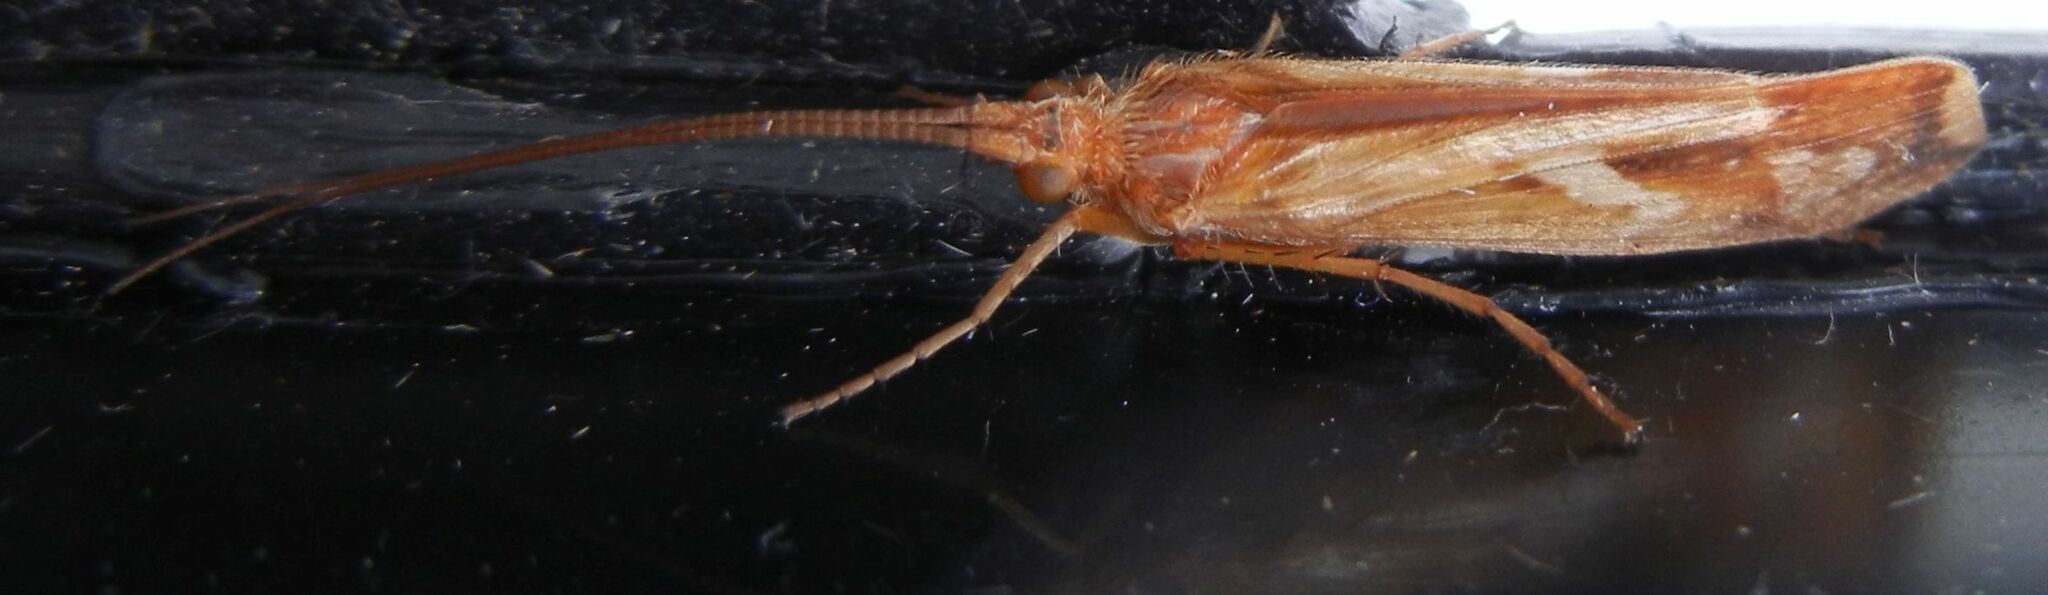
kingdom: Animalia
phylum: Arthropoda
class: Insecta
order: Trichoptera
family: Limnephilidae
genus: Limnephilus
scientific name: Limnephilus lunatus
